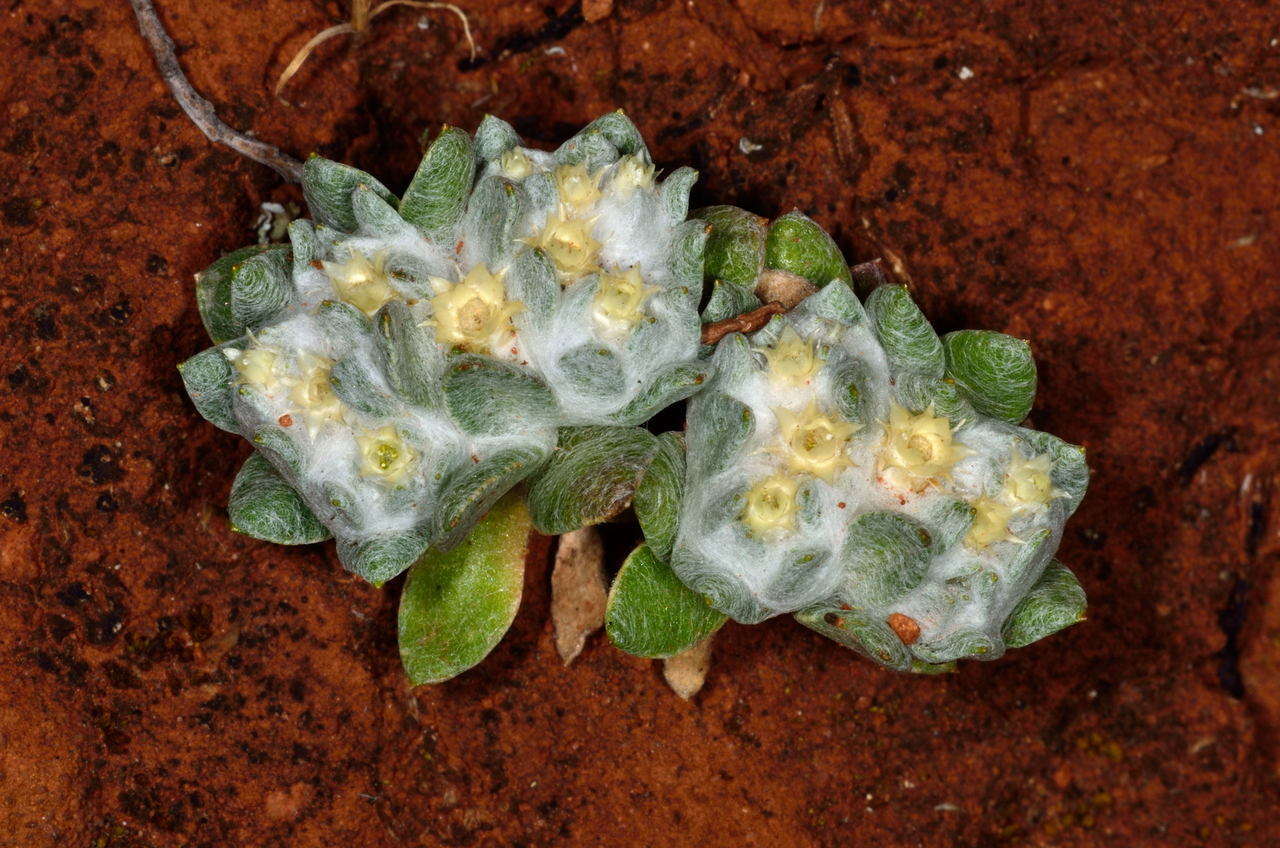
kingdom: Plantae
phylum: Tracheophyta
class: Magnoliopsida
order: Asterales
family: Asteraceae
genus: Actinobole
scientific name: Actinobole uliginosum
